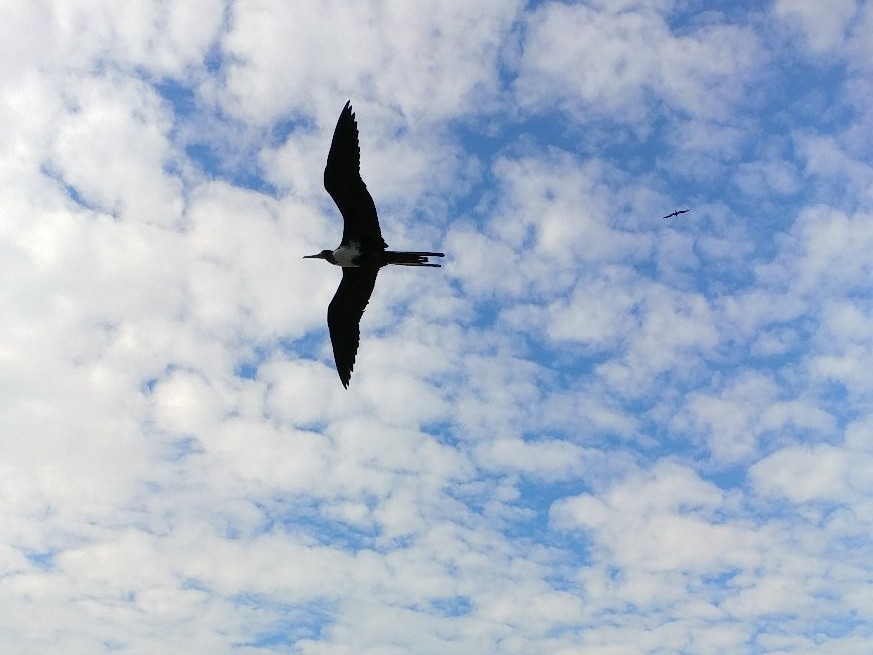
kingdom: Animalia
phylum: Chordata
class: Aves
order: Suliformes
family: Fregatidae
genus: Fregata
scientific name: Fregata magnificens
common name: Magnificent frigatebird
